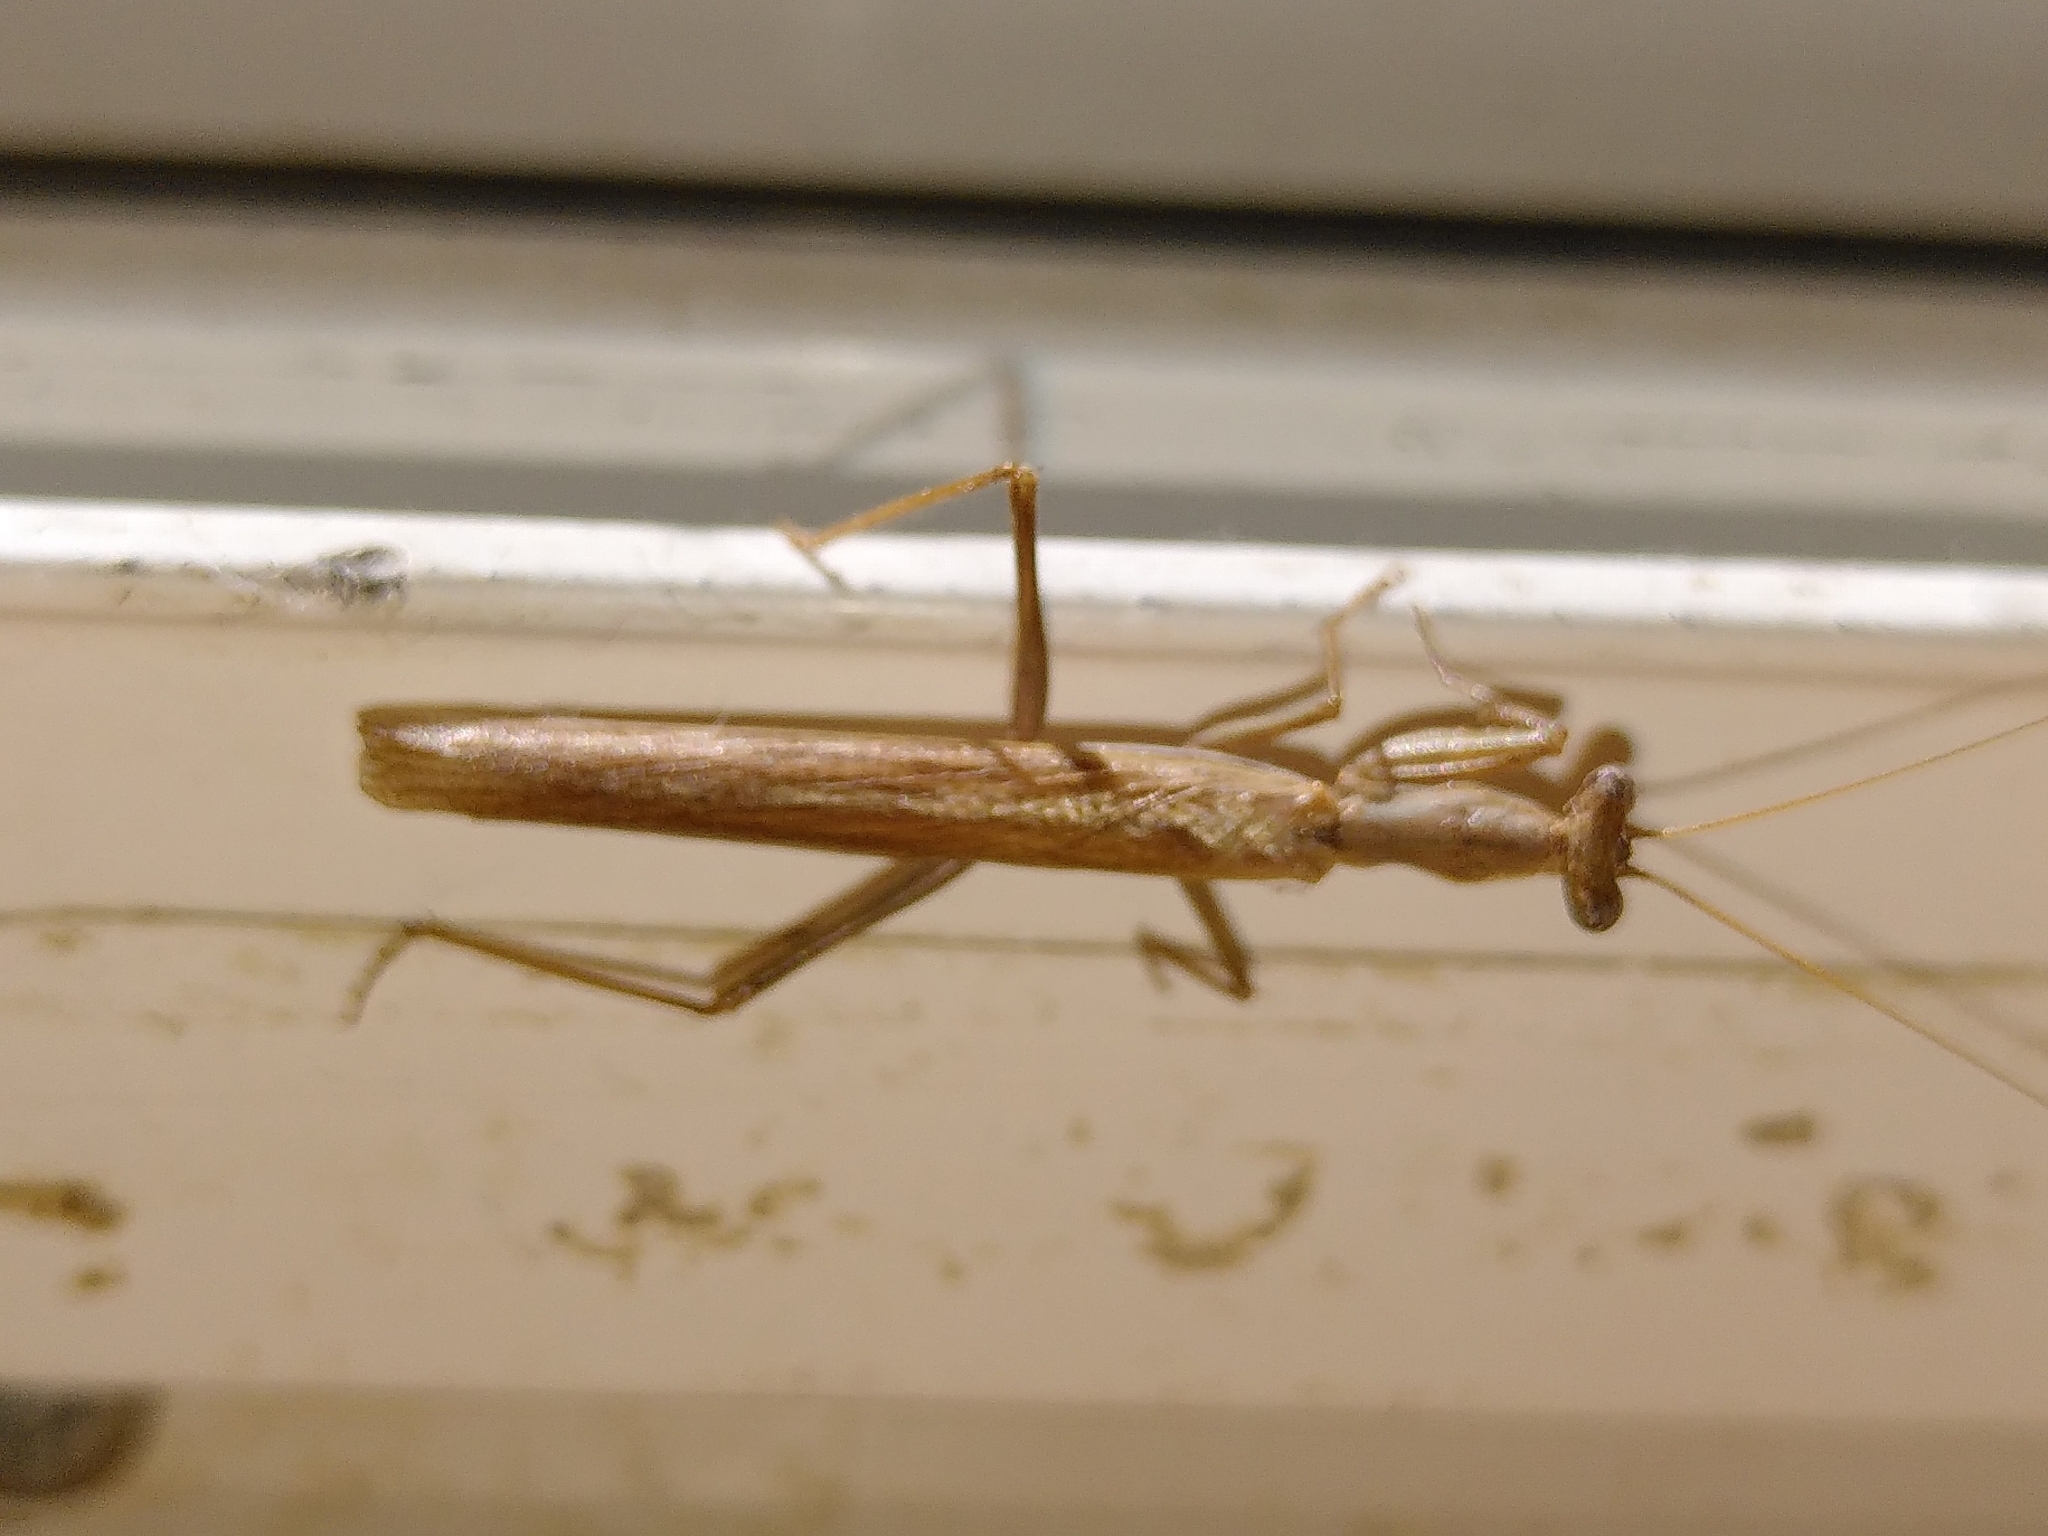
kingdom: Animalia
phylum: Arthropoda
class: Insecta
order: Mantodea
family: Amelidae
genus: Ameles
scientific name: Ameles decolor
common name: Dwarf mantis
